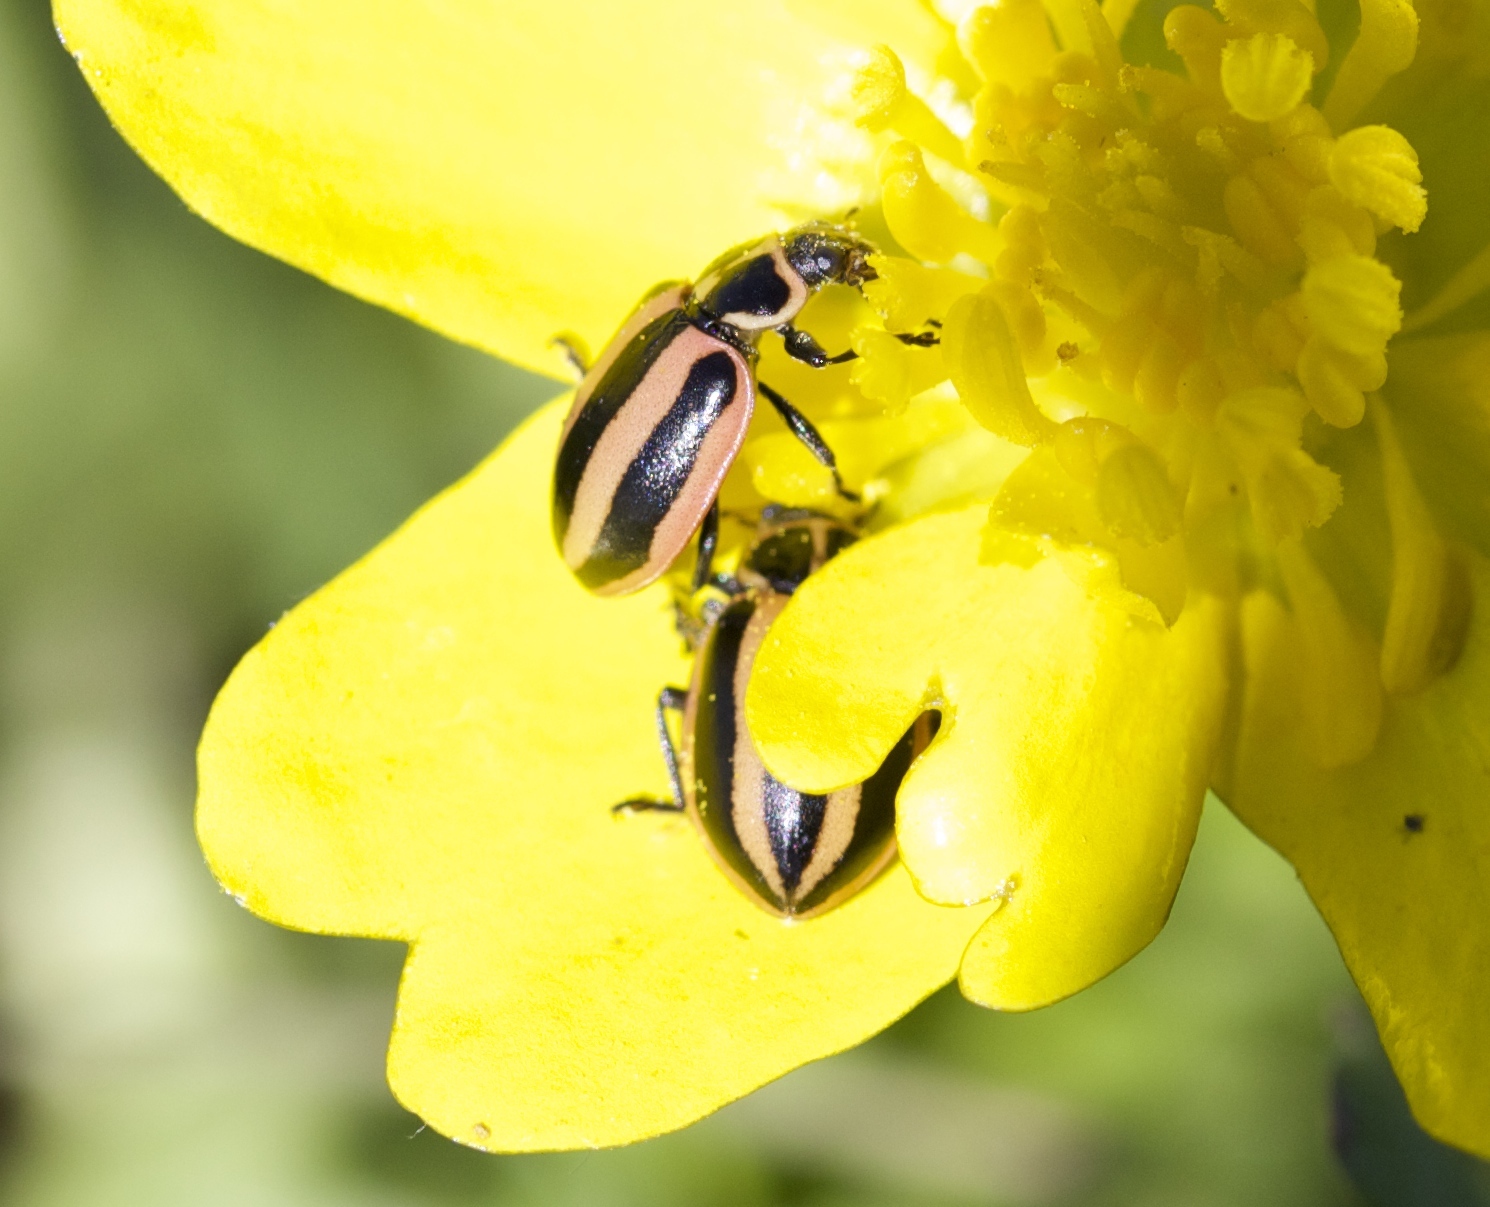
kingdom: Animalia
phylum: Arthropoda
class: Insecta
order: Coleoptera
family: Coccinellidae
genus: Paranaemia
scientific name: Paranaemia vittigera
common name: Ladybird beetle
